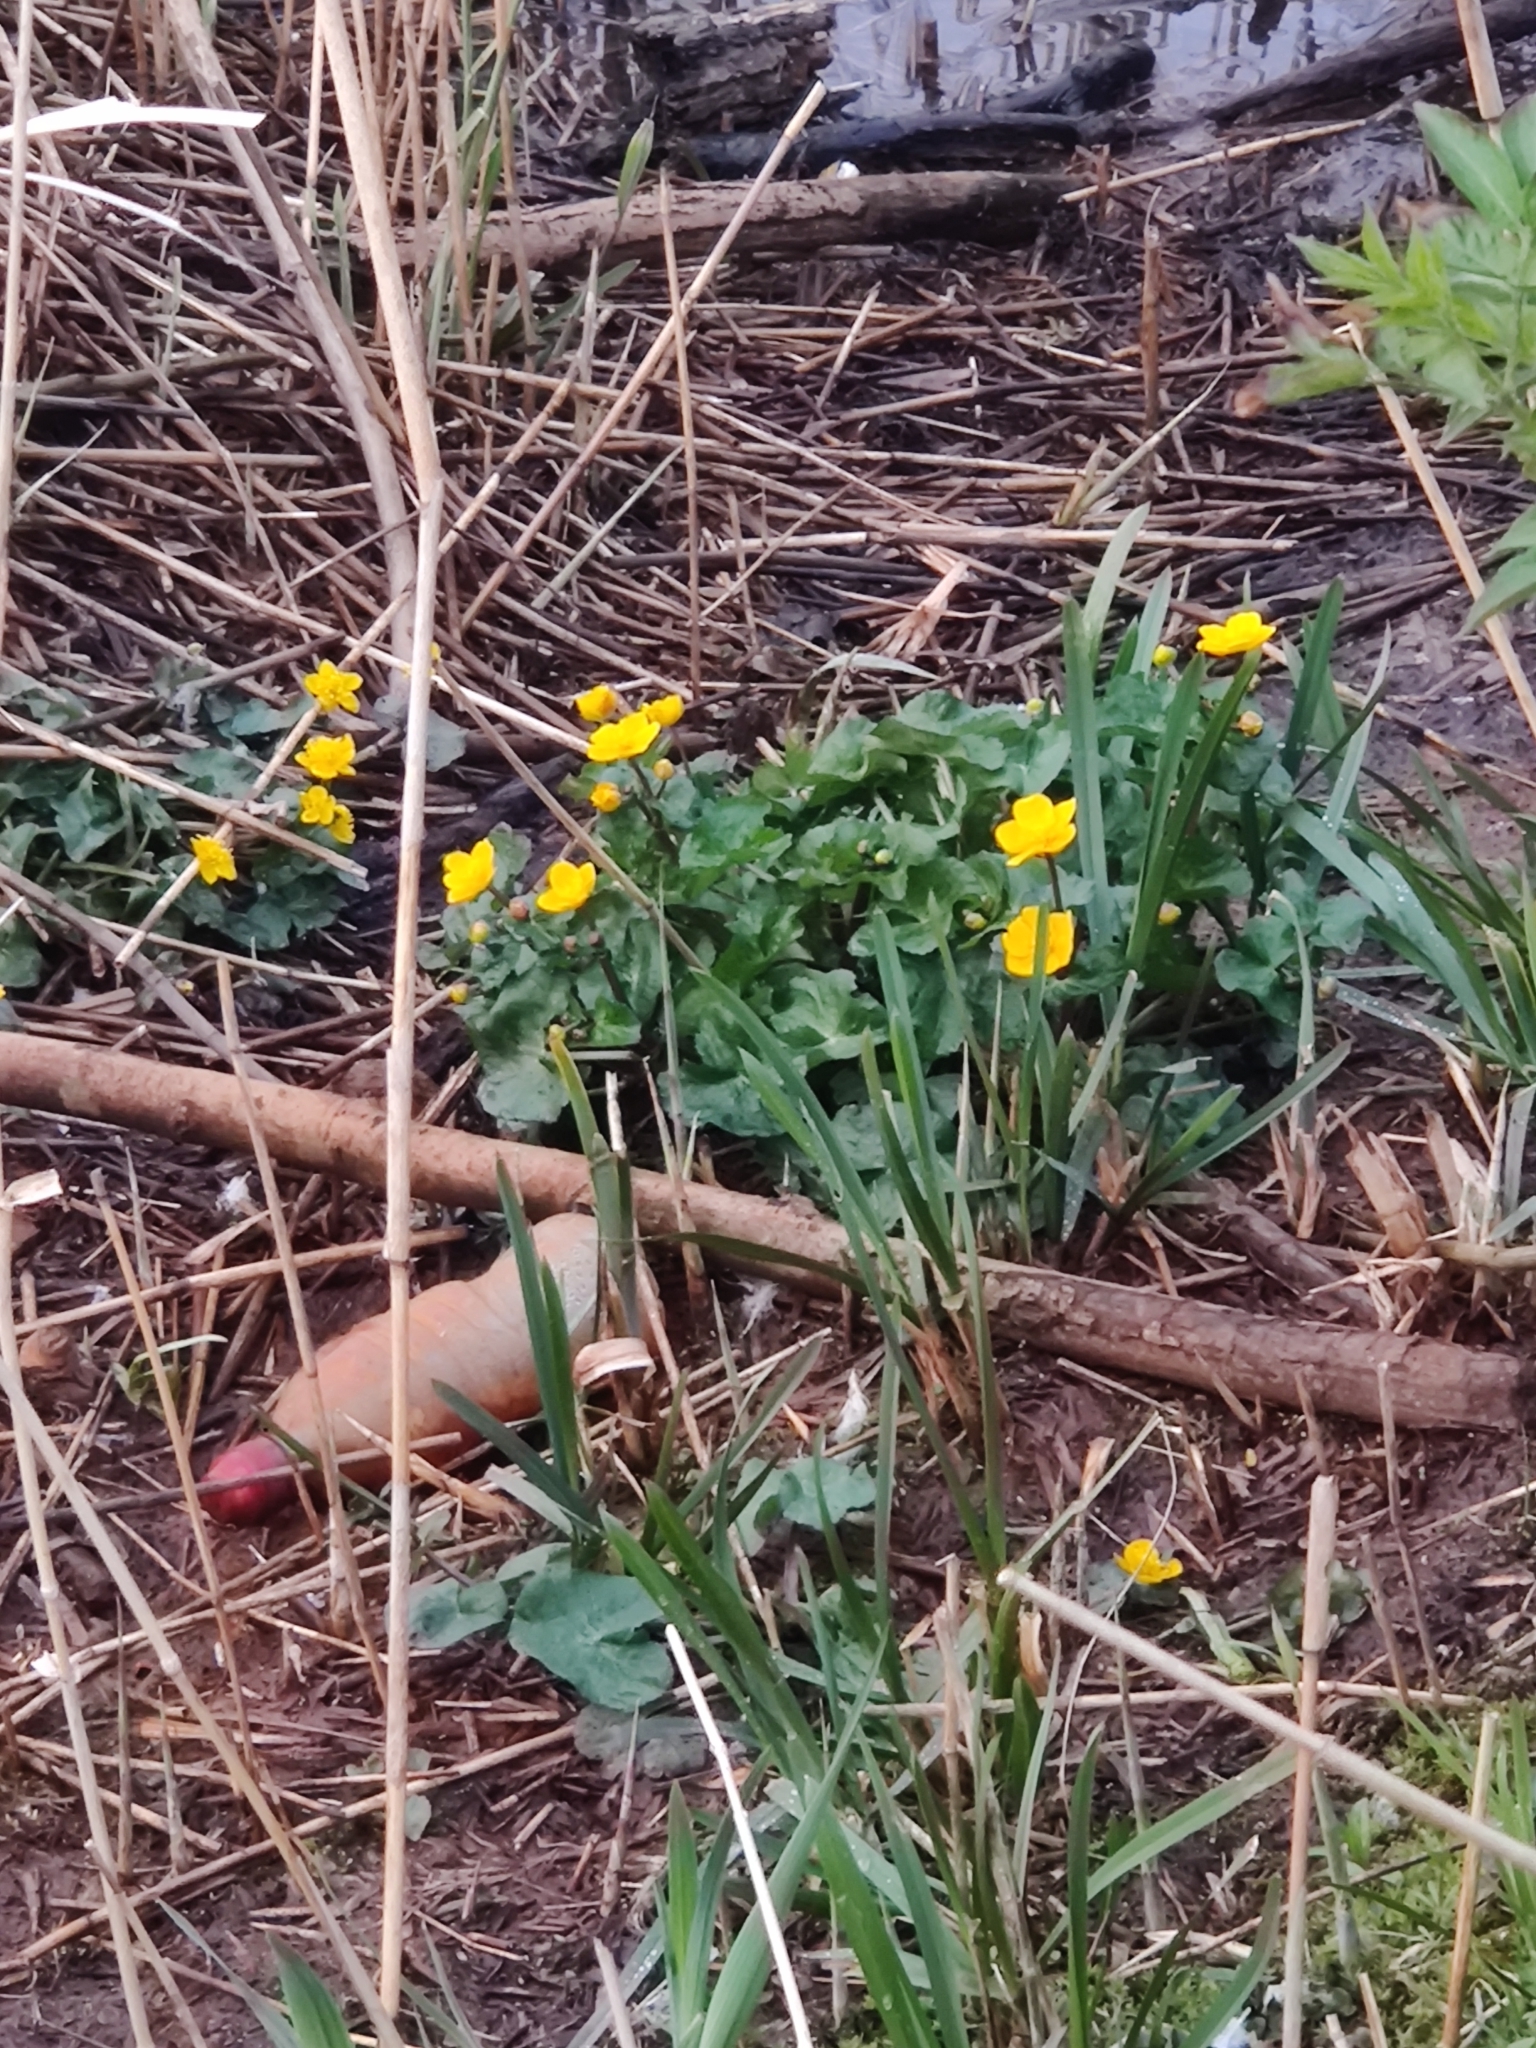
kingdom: Plantae
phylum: Tracheophyta
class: Magnoliopsida
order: Ranunculales
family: Ranunculaceae
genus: Caltha
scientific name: Caltha palustris
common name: Marsh marigold
